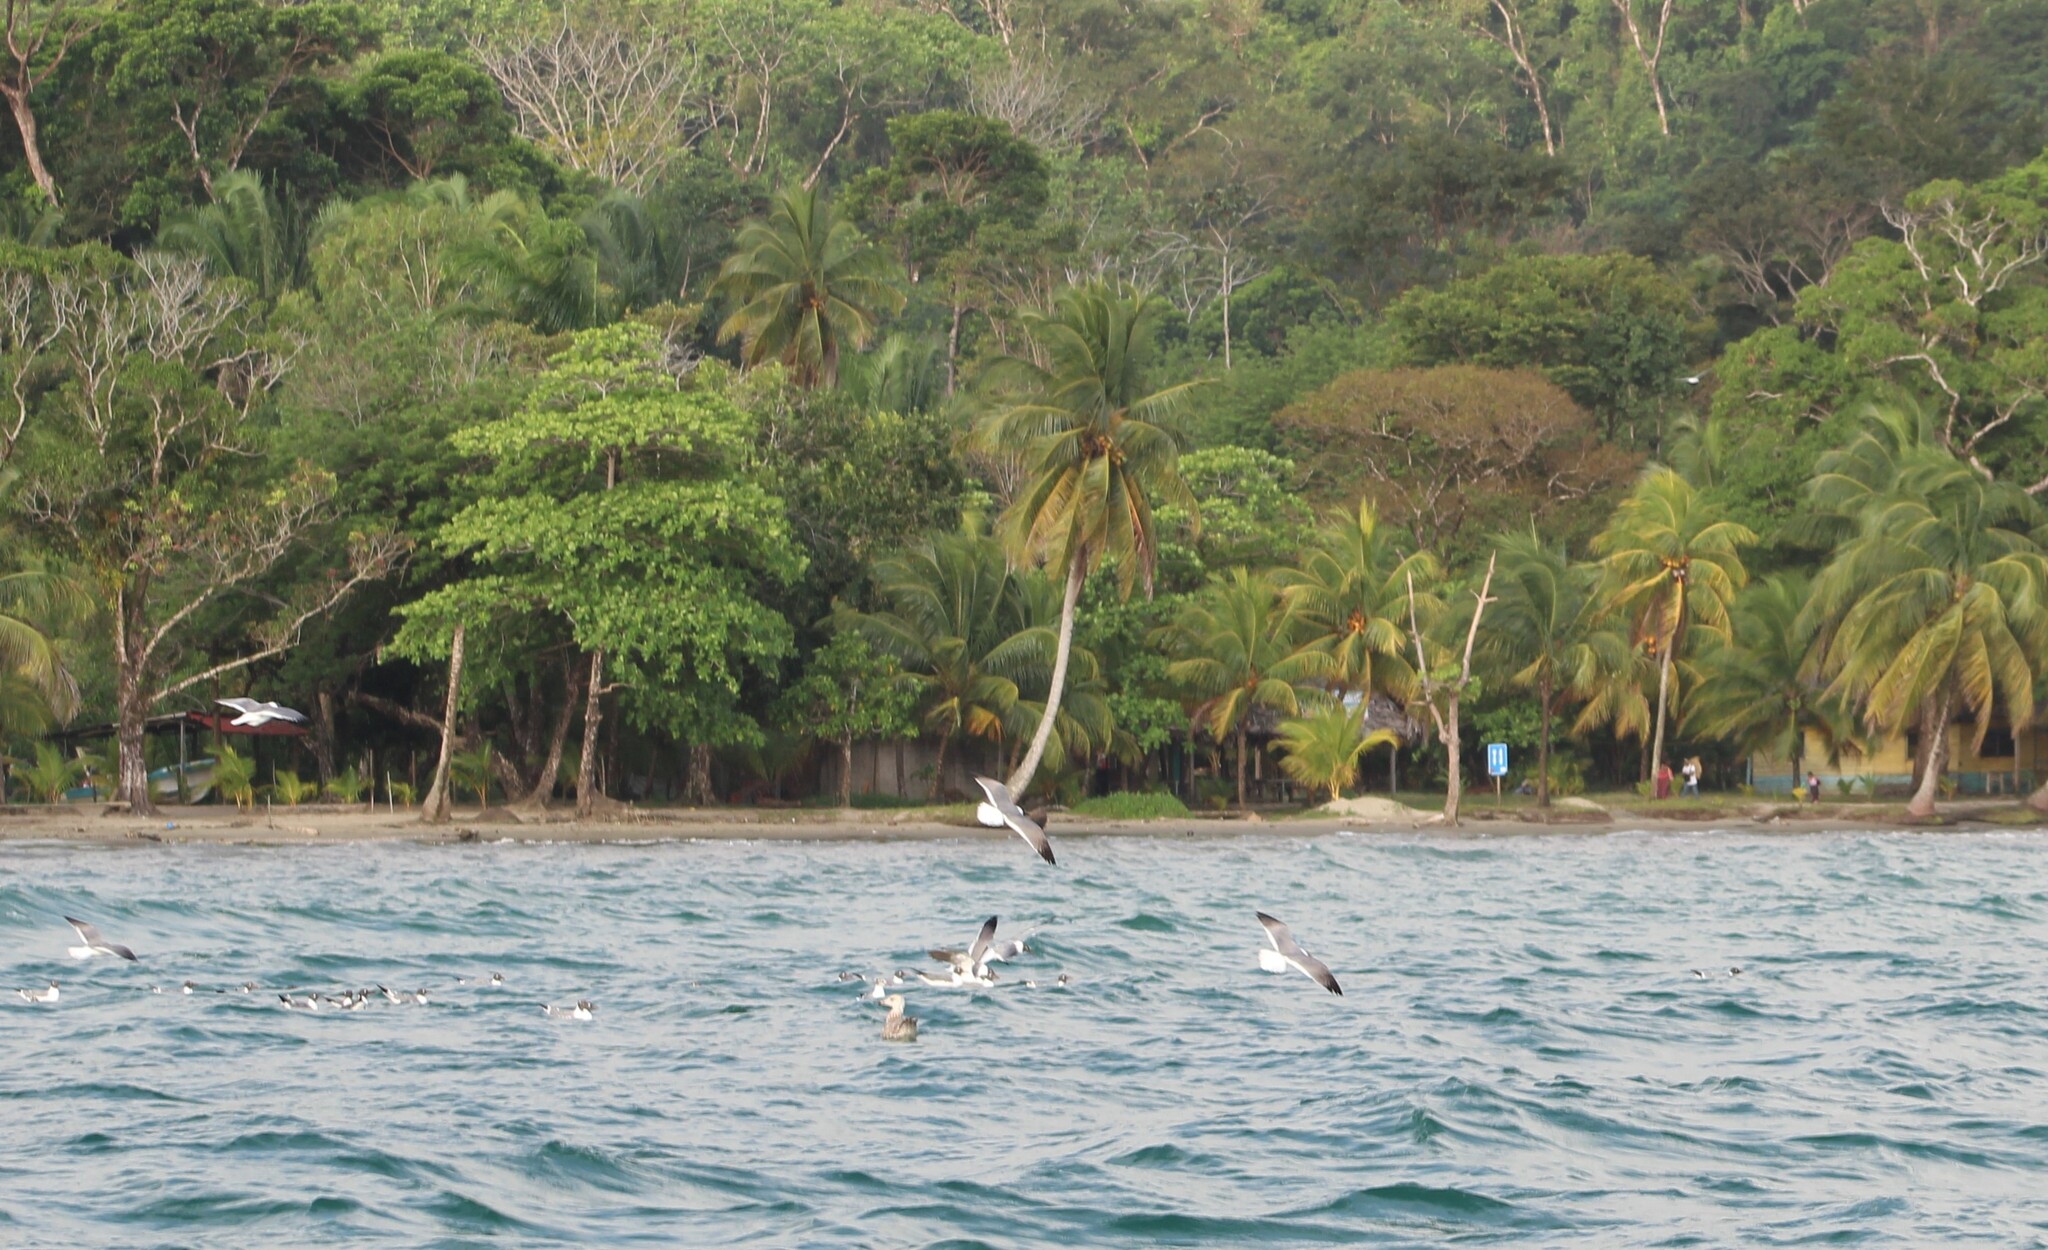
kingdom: Animalia
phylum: Chordata
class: Aves
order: Charadriiformes
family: Laridae
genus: Leucophaeus
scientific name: Leucophaeus atricilla
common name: Laughing gull
